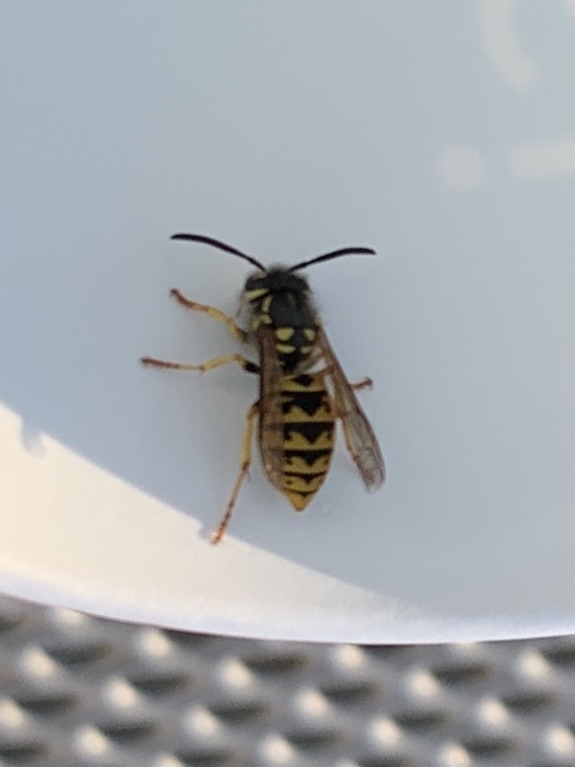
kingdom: Animalia
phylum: Arthropoda
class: Insecta
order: Hymenoptera
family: Vespidae
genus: Vespula
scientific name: Vespula germanica
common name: German wasp
